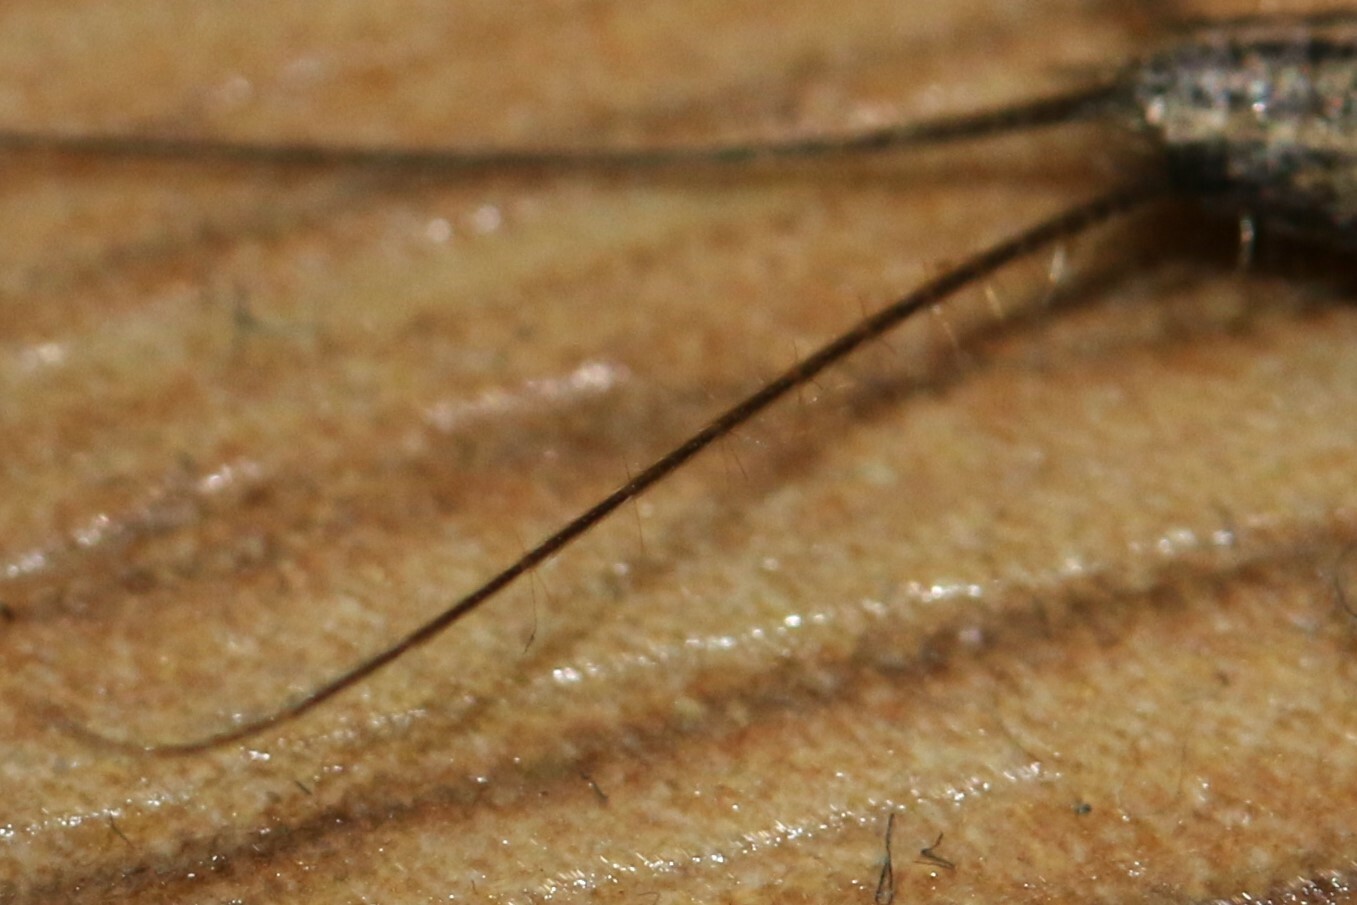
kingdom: Animalia
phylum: Arthropoda
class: Insecta
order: Zygentoma
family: Lepismatidae
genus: Ctenolepisma
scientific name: Ctenolepisma lineata
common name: Four-lined silverfish
